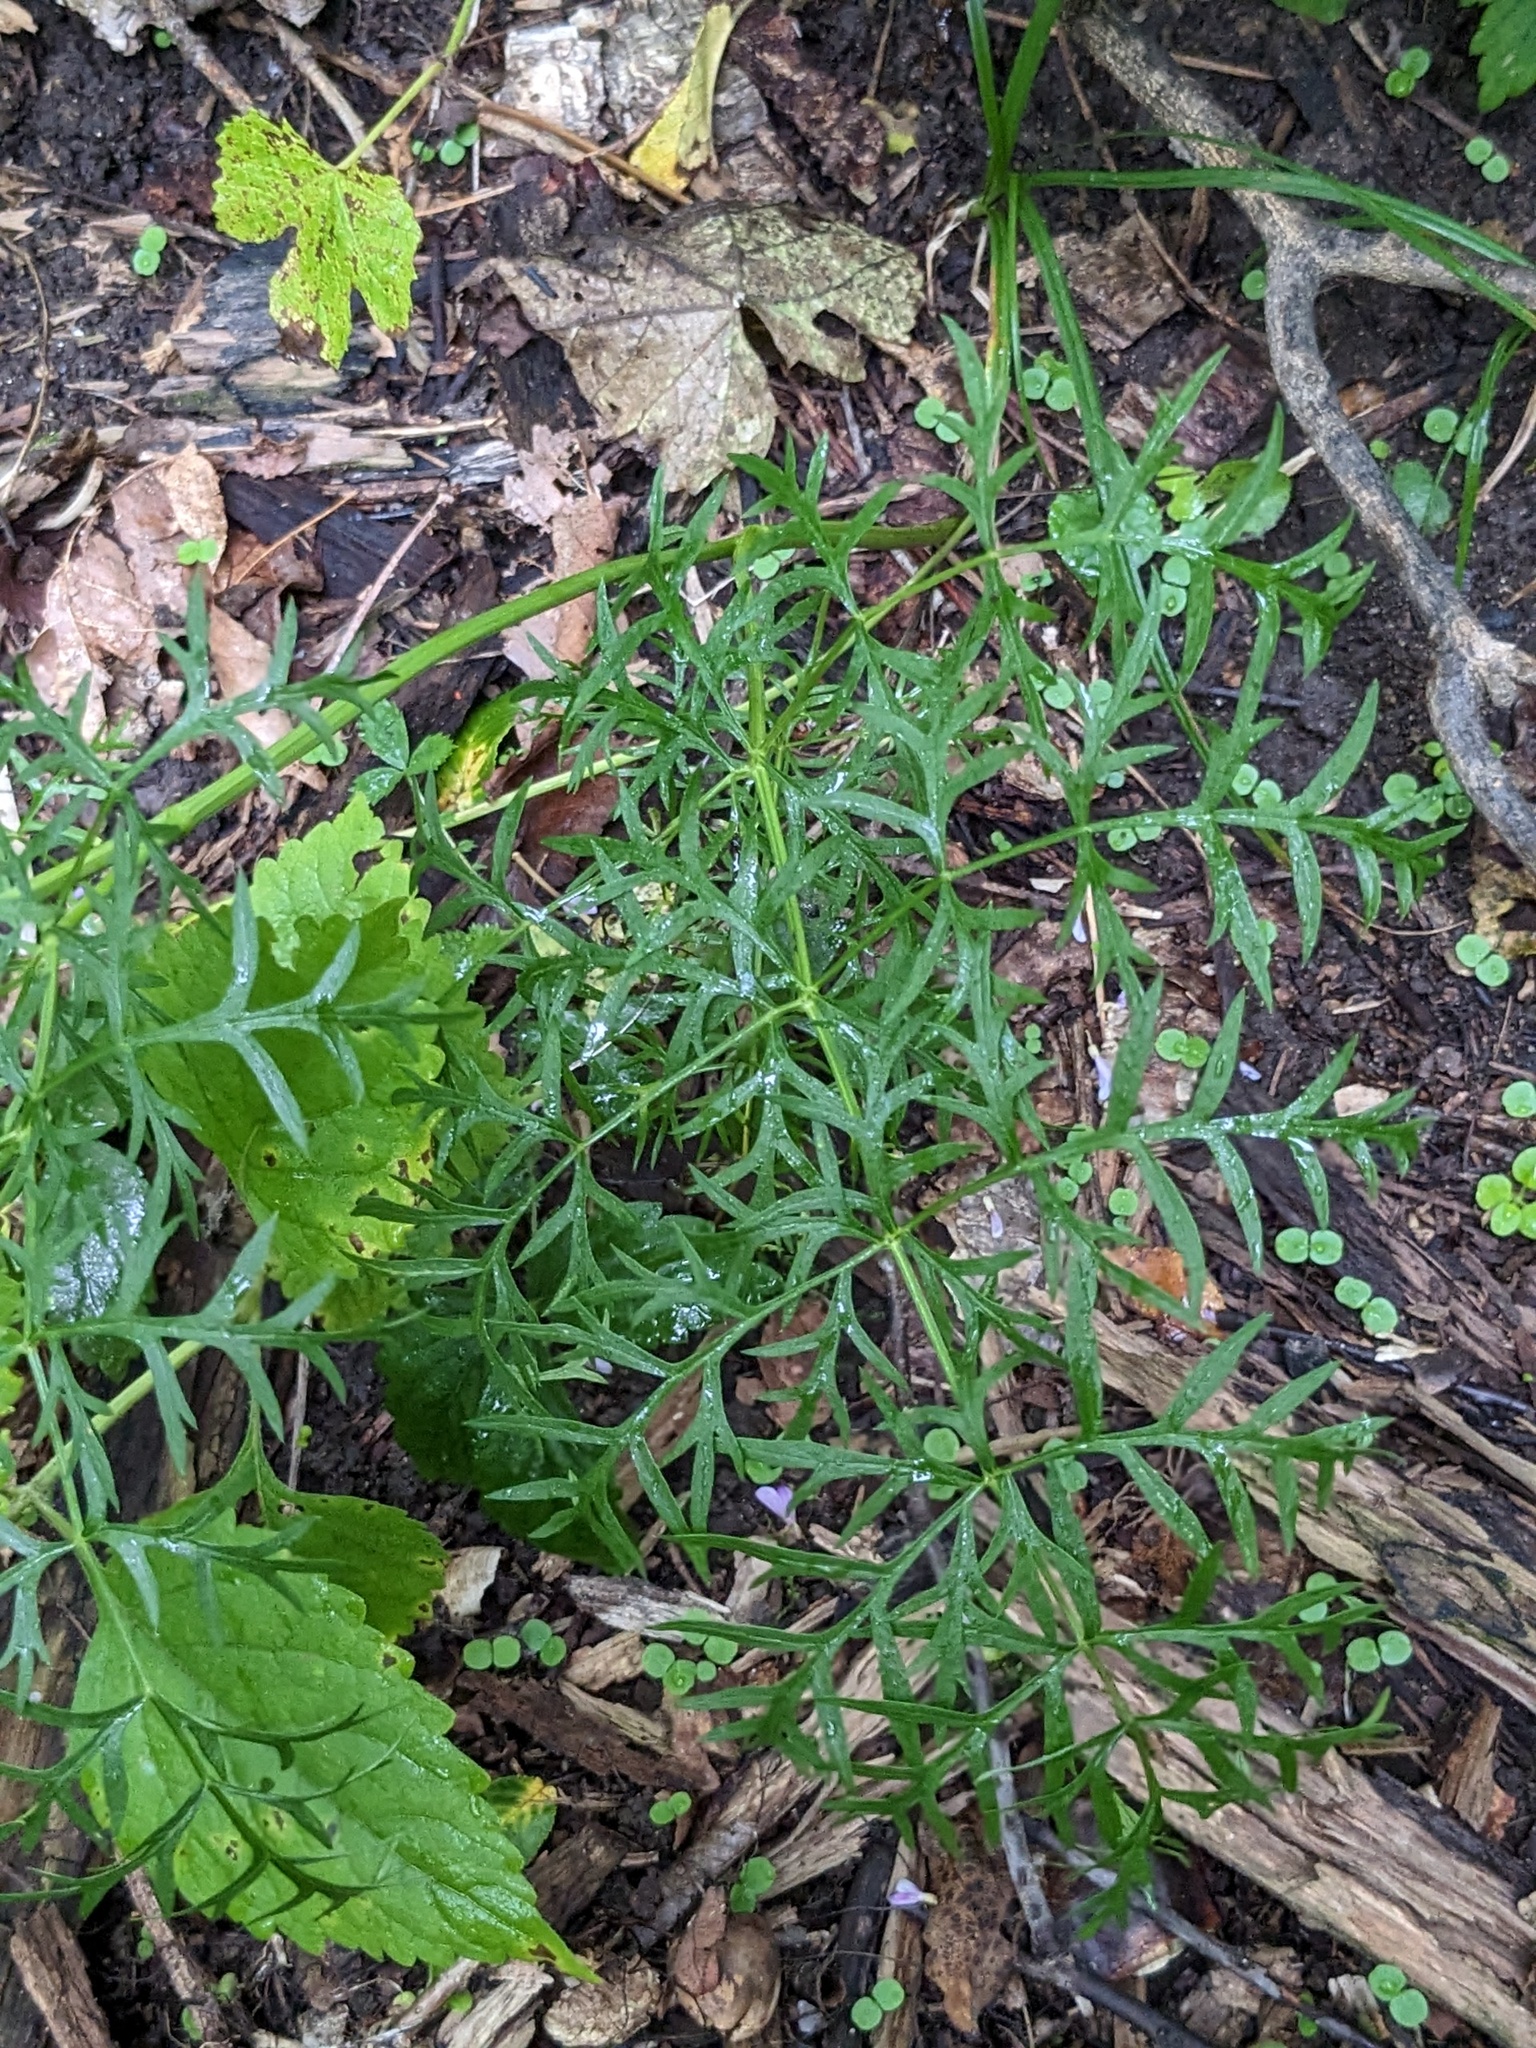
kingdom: Plantae
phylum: Tracheophyta
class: Magnoliopsida
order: Apiales
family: Apiaceae
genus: Seseli
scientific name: Seseli seseloides
